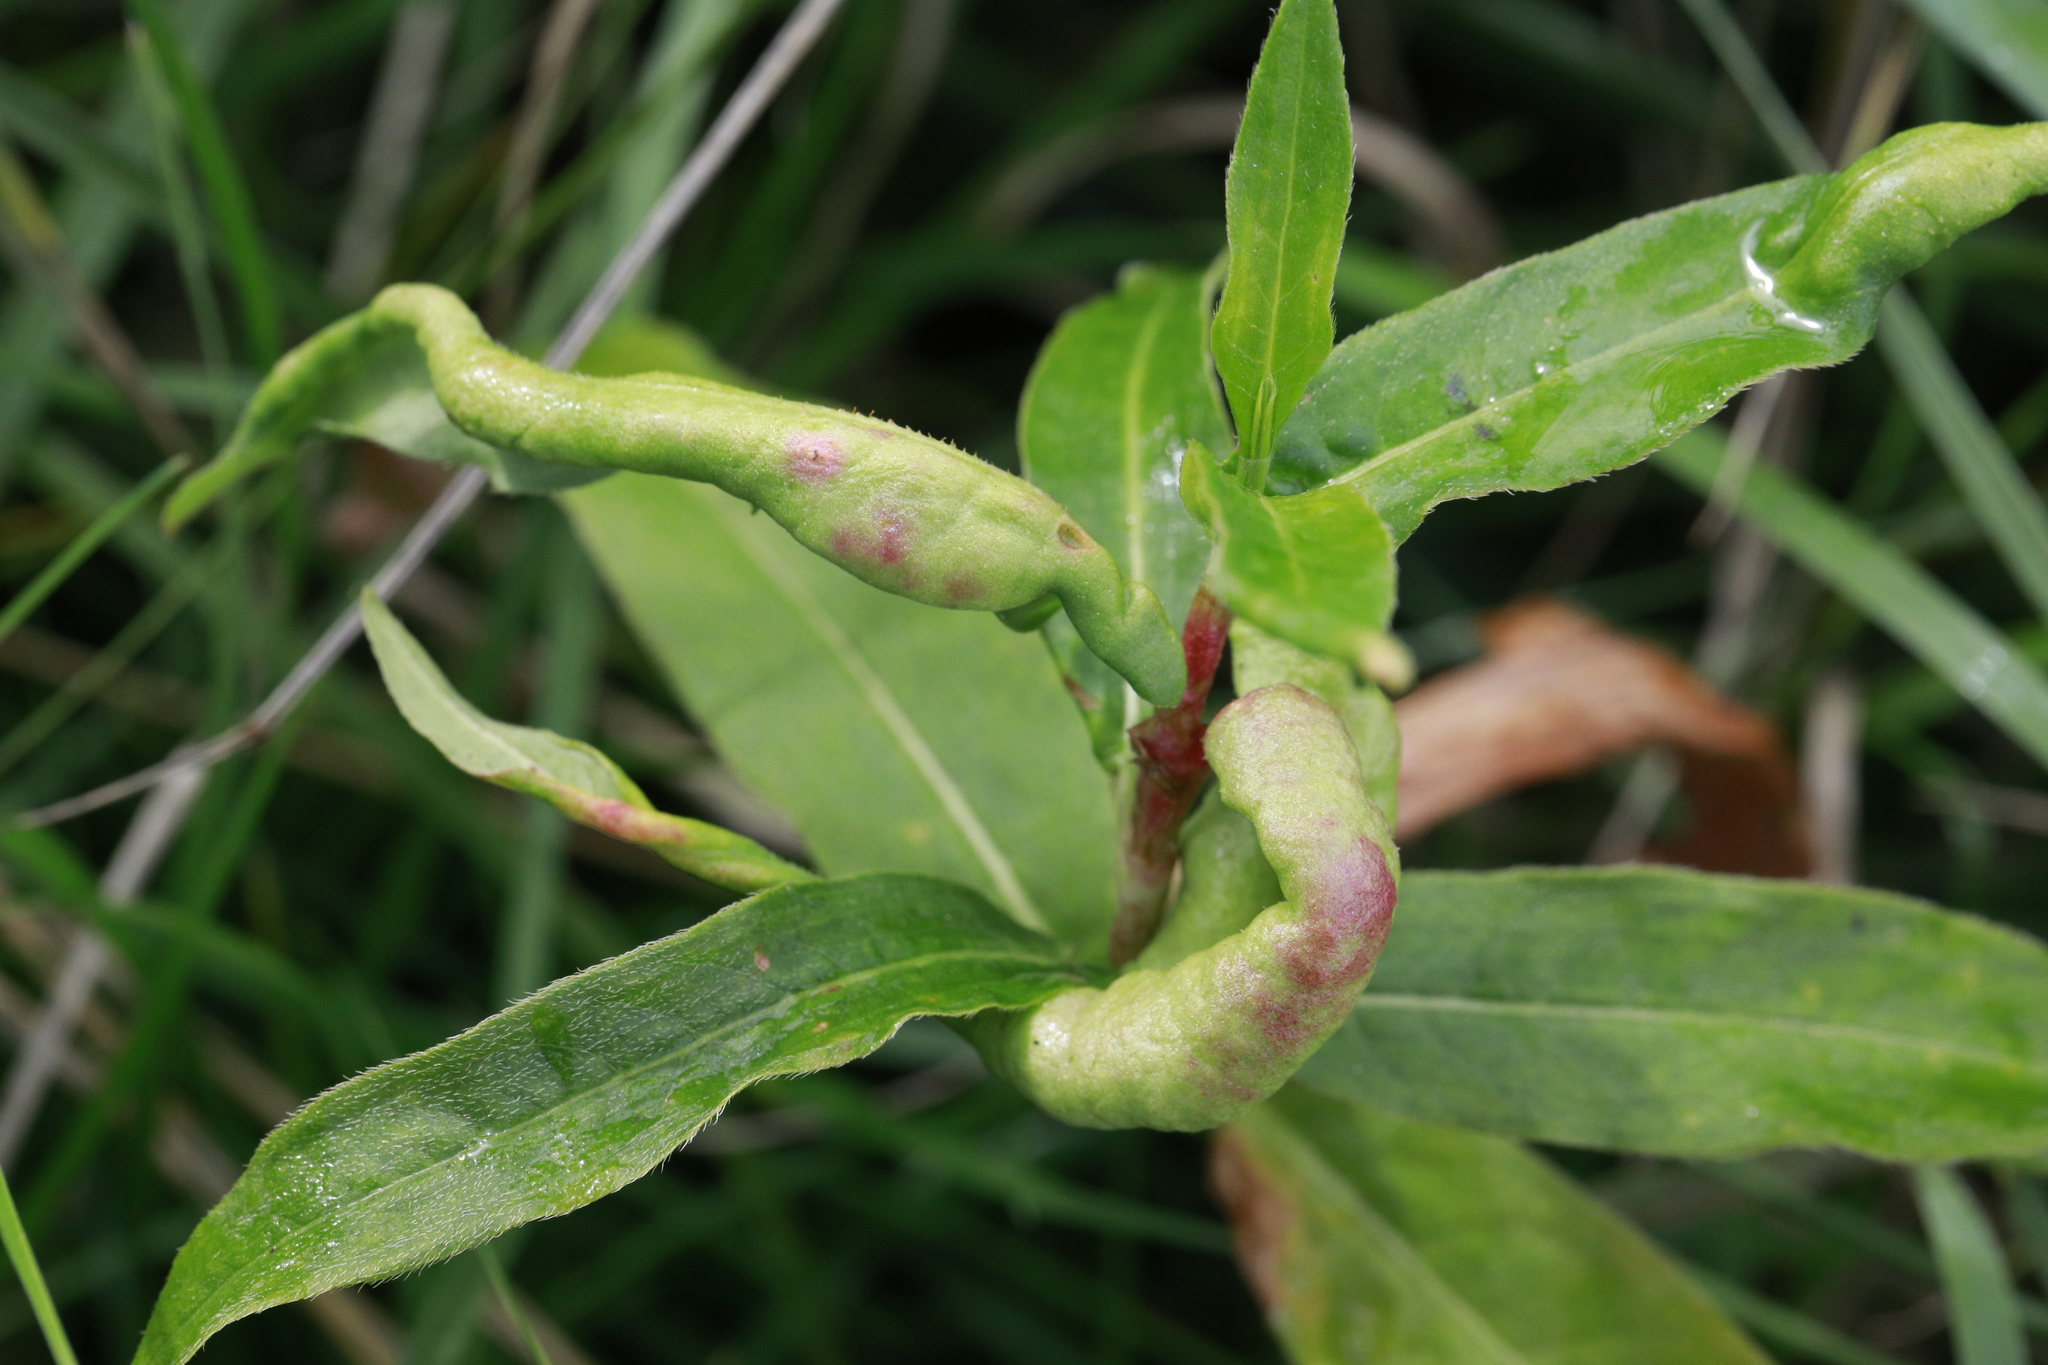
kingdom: Animalia
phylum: Arthropoda
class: Insecta
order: Diptera
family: Cecidomyiidae
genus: Wachtliella
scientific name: Wachtliella persicariae
